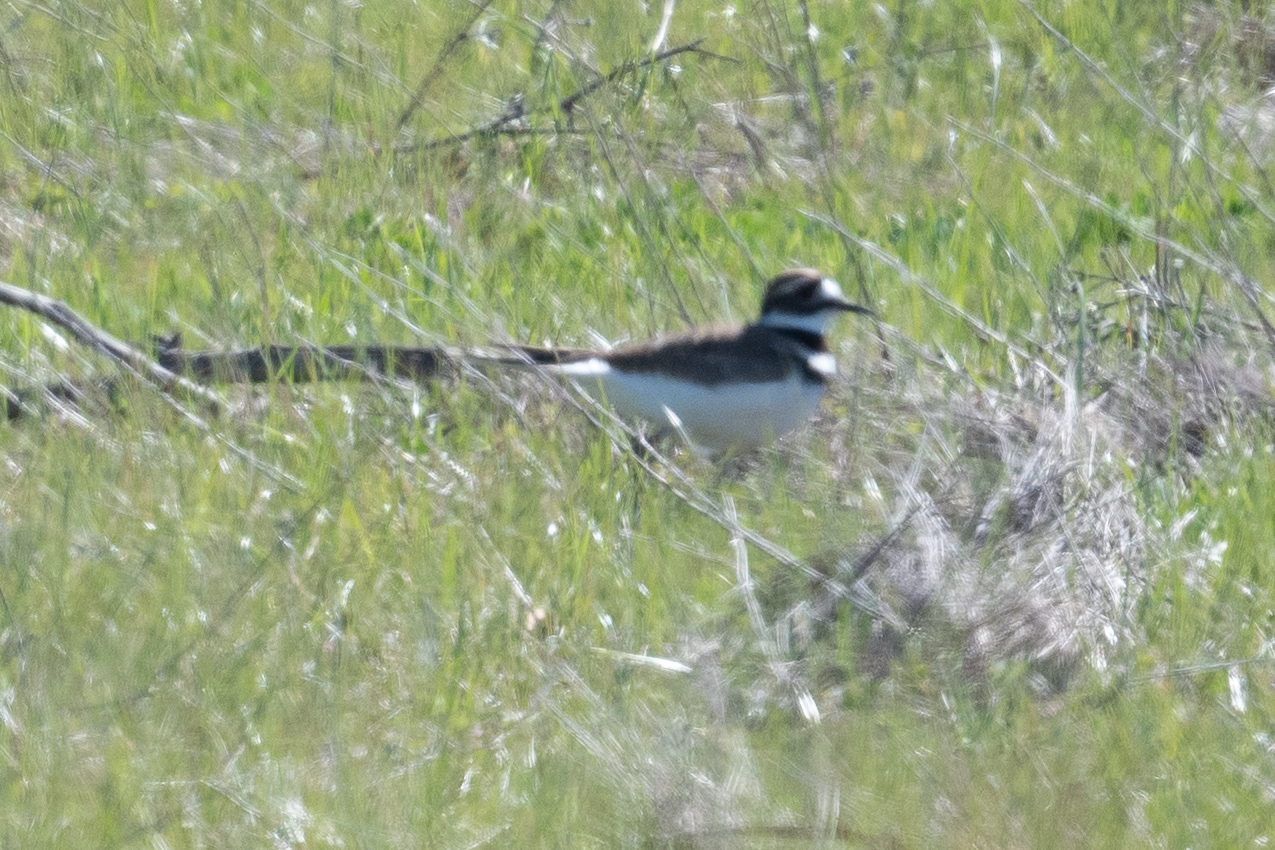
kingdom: Animalia
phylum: Chordata
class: Aves
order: Charadriiformes
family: Charadriidae
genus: Charadrius
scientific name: Charadrius vociferus
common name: Killdeer
